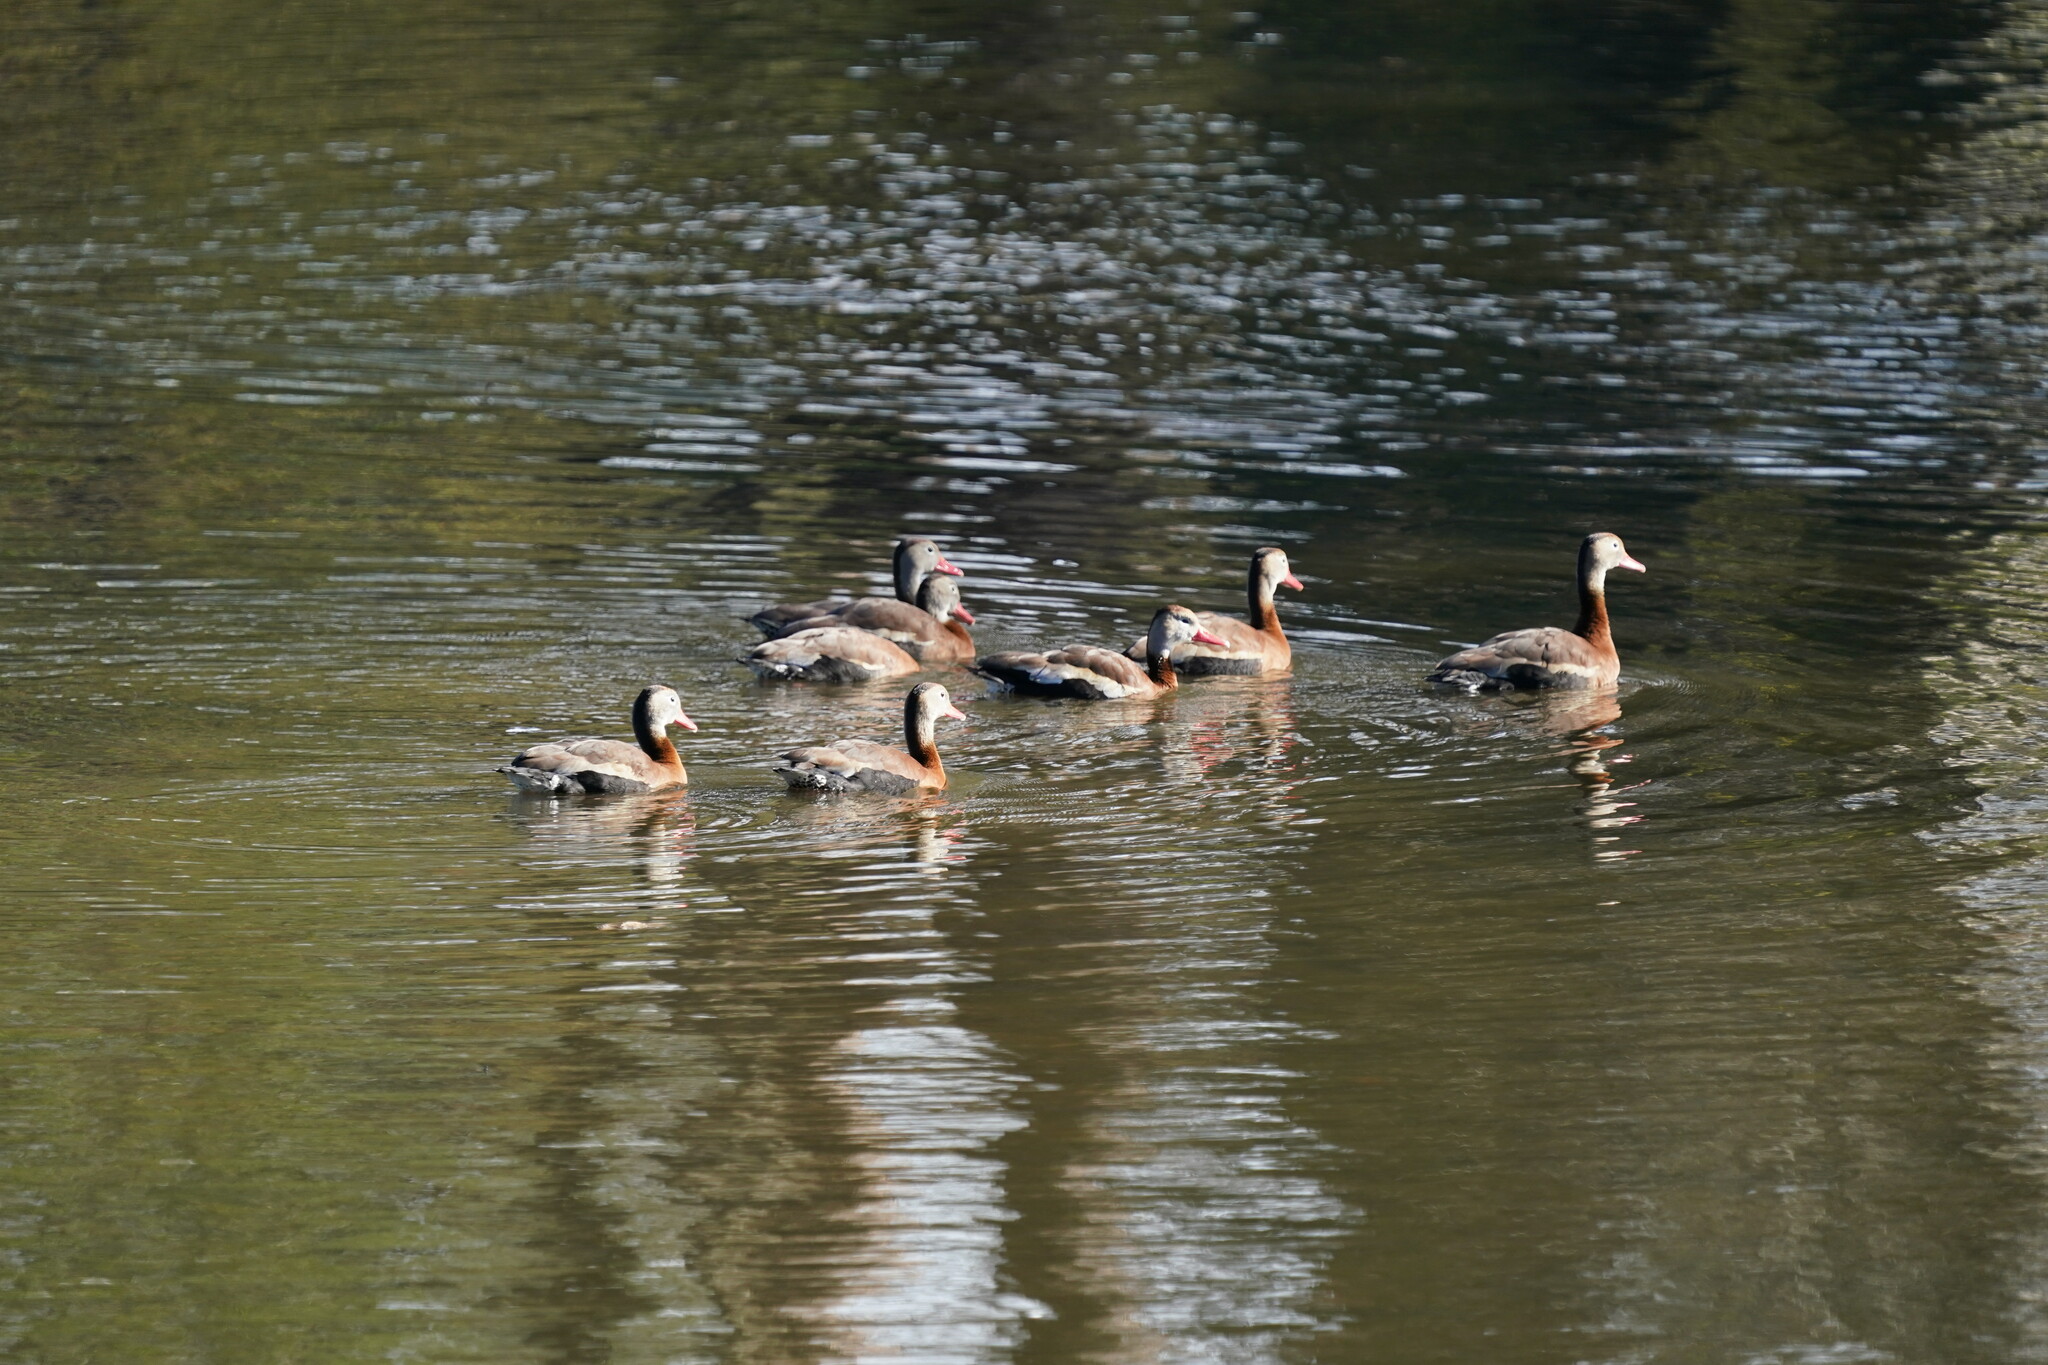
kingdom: Animalia
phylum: Chordata
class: Aves
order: Anseriformes
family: Anatidae
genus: Dendrocygna
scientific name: Dendrocygna autumnalis
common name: Black-bellied whistling duck
